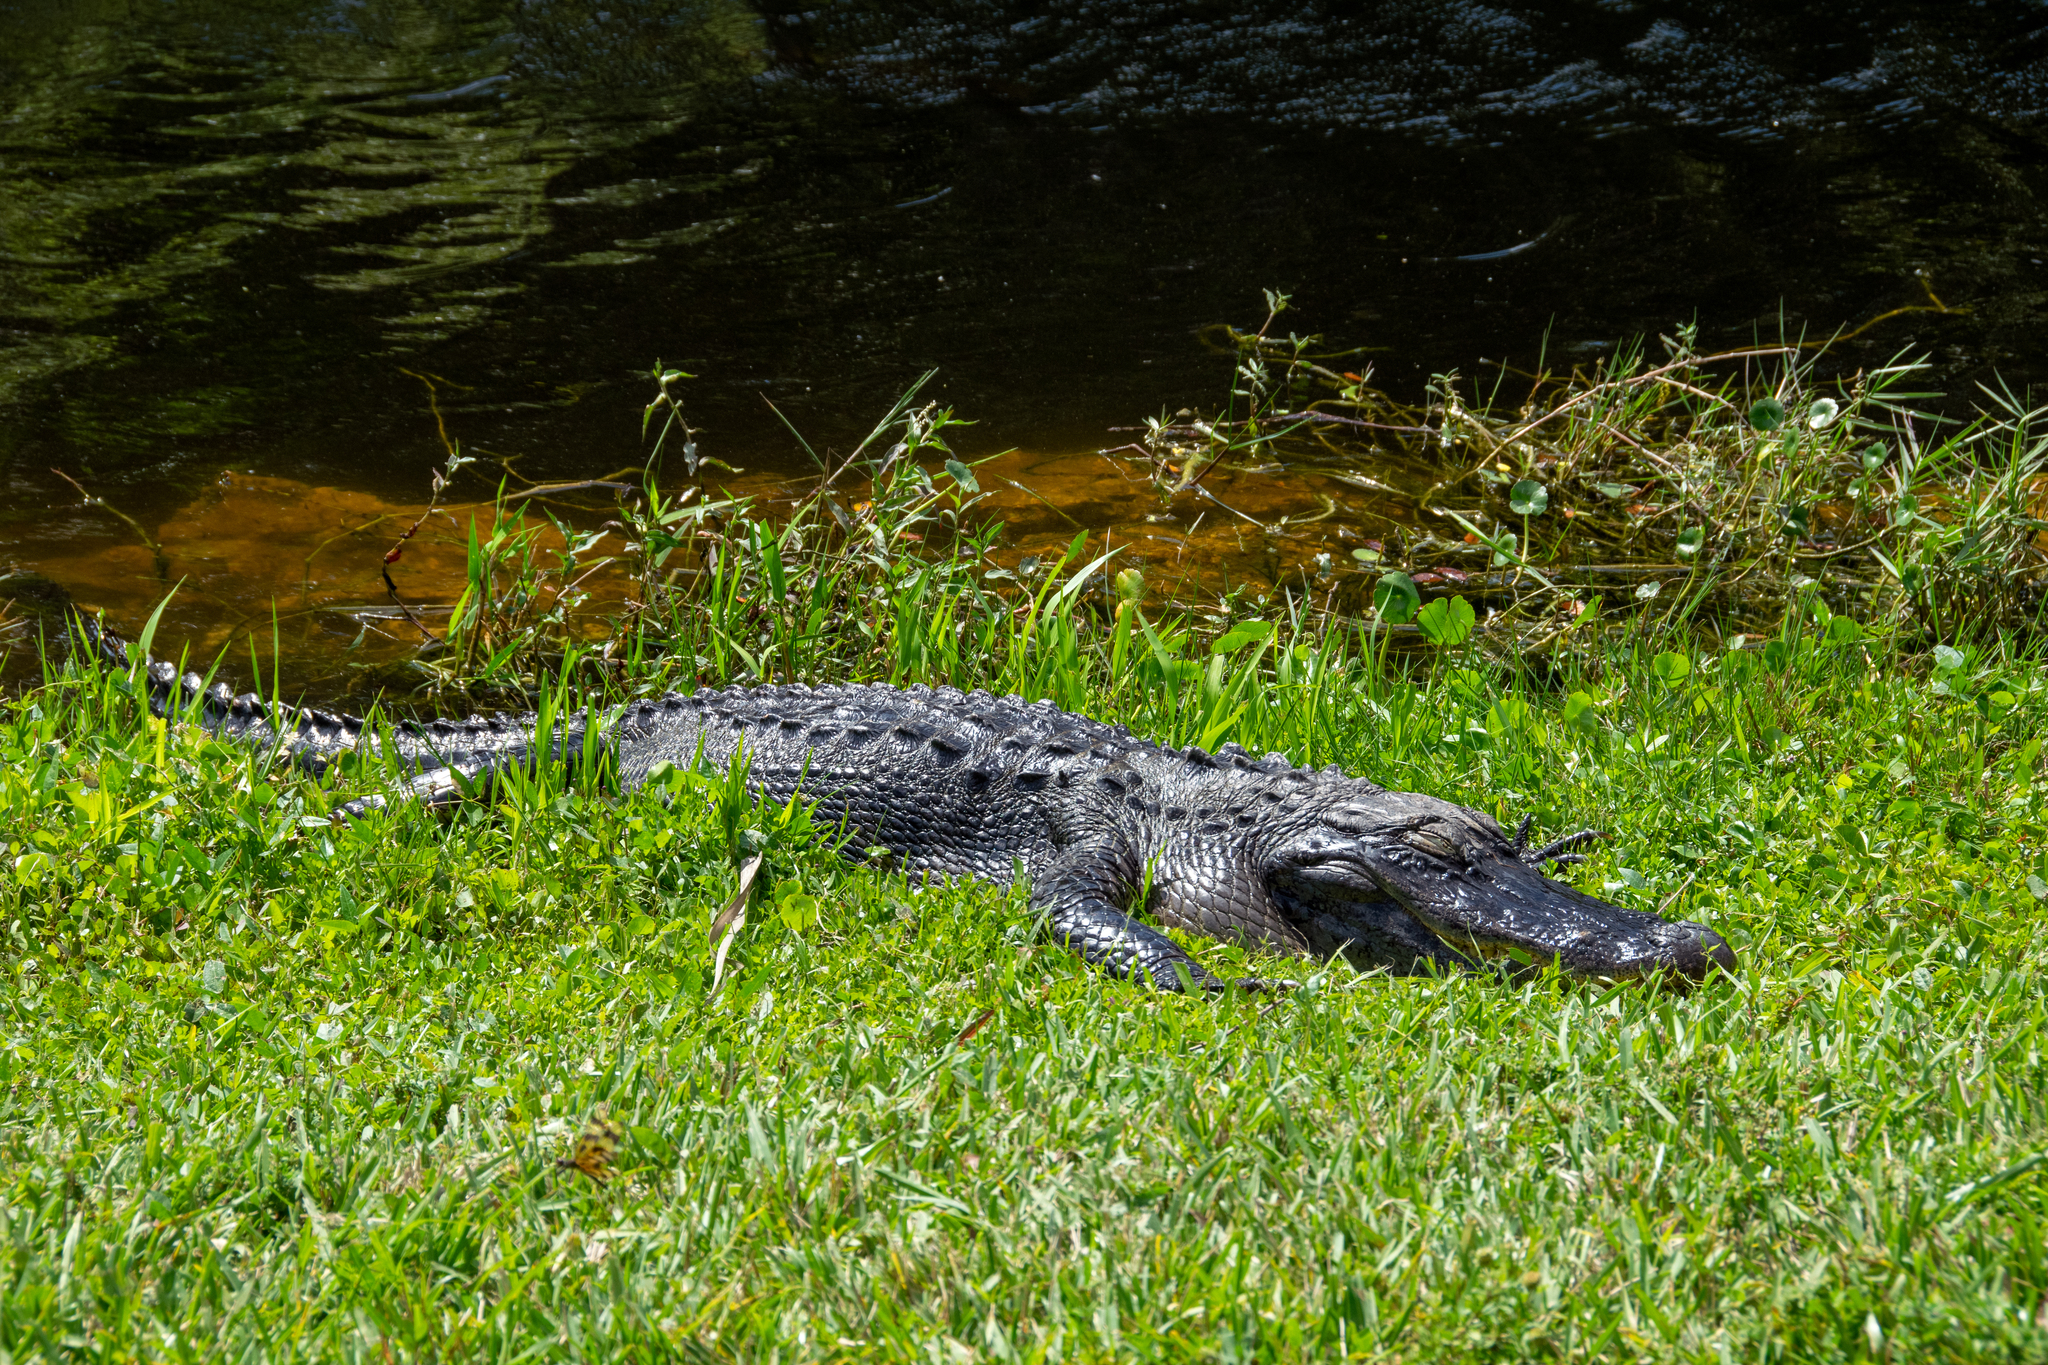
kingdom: Animalia
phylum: Chordata
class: Crocodylia
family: Alligatoridae
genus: Alligator
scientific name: Alligator mississippiensis
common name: American alligator
